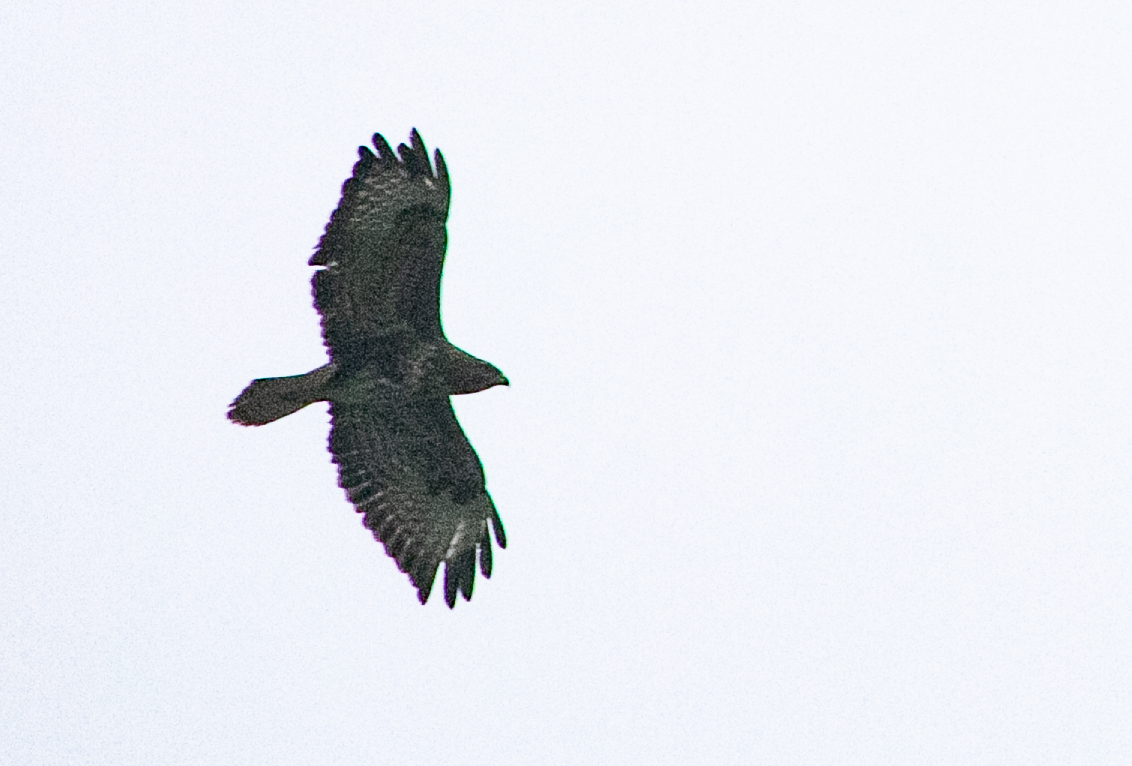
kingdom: Animalia
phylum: Chordata
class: Aves
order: Accipitriformes
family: Accipitridae
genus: Buteo
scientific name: Buteo buteo
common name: Common buzzard
